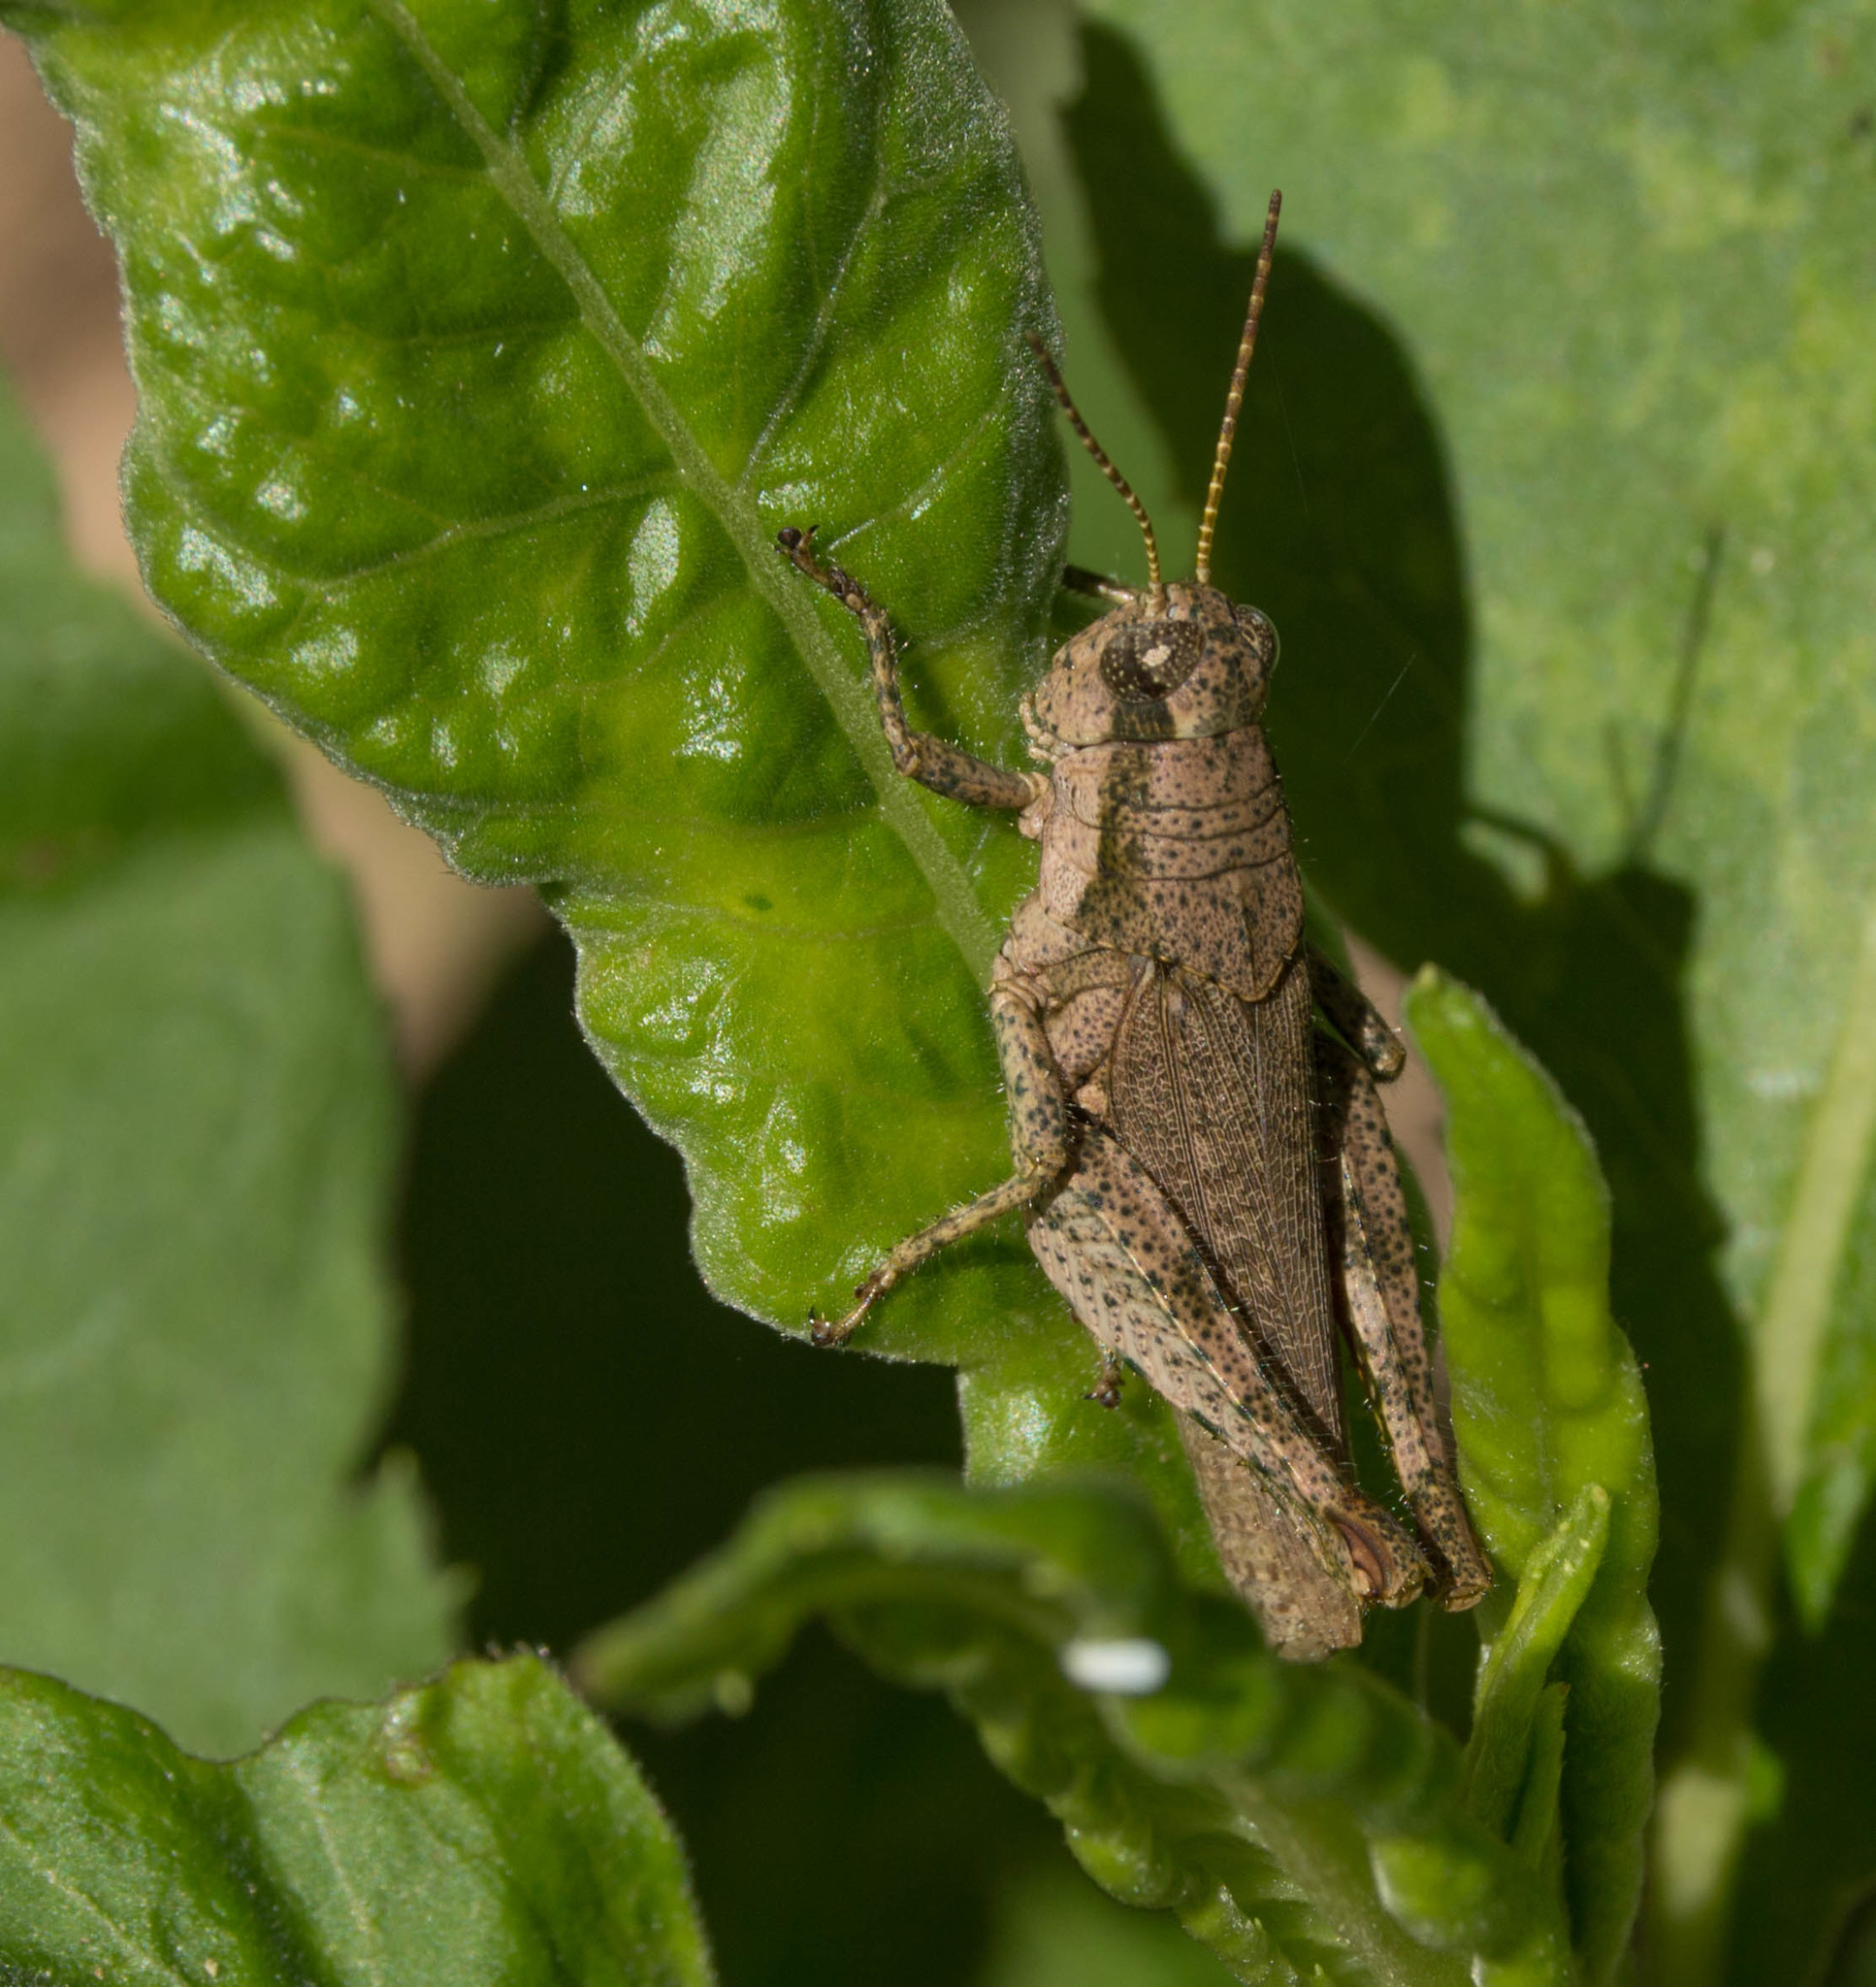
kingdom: Animalia
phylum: Arthropoda
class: Insecta
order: Orthoptera
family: Acrididae
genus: Ronderosia
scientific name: Ronderosia bergii
